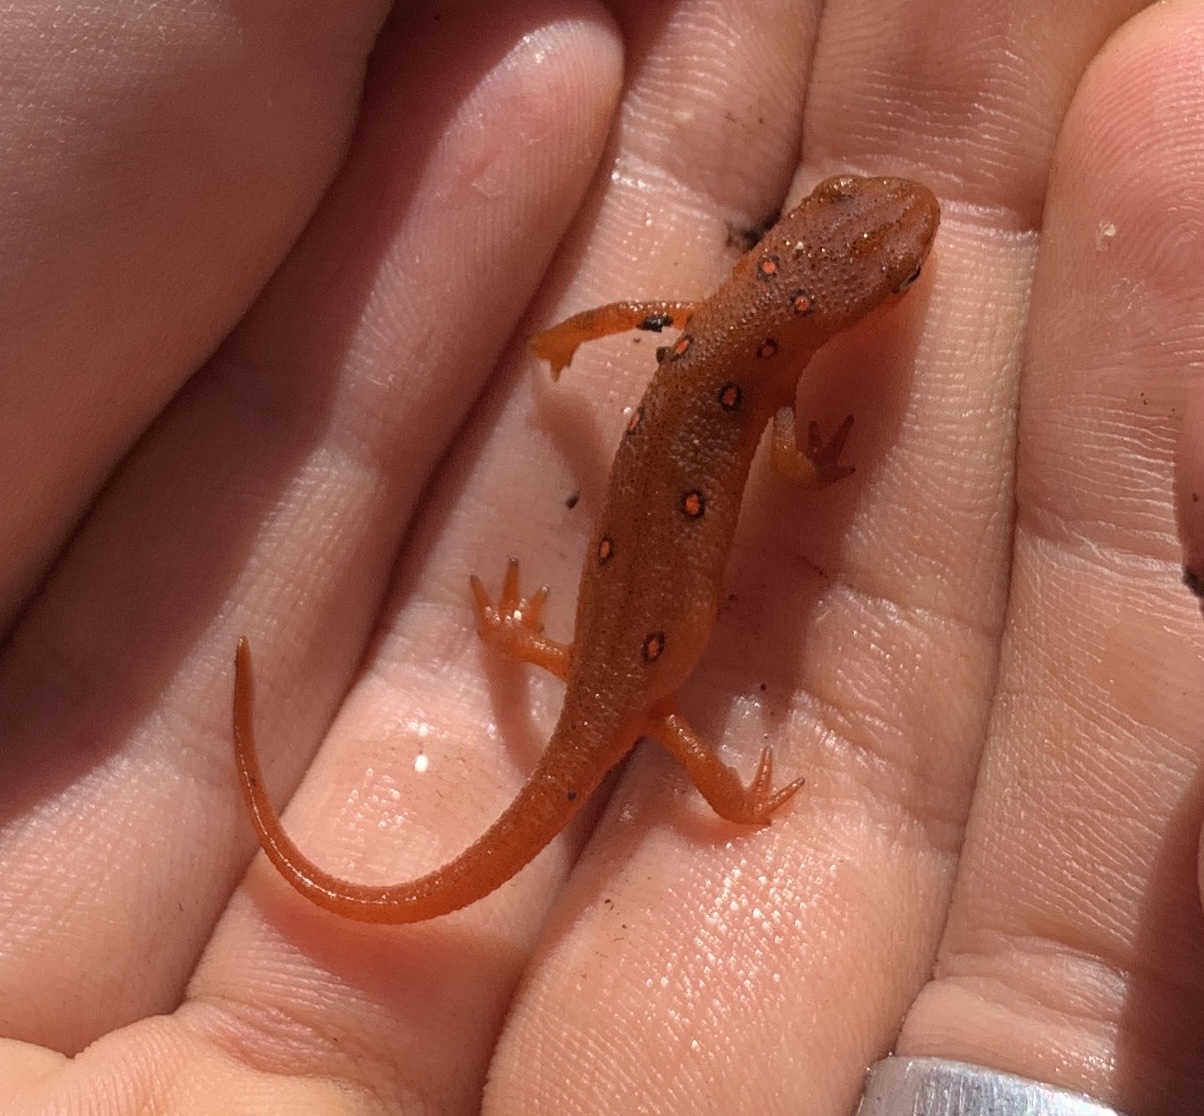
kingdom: Animalia
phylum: Chordata
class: Amphibia
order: Caudata
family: Salamandridae
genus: Notophthalmus
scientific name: Notophthalmus viridescens
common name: Eastern newt
